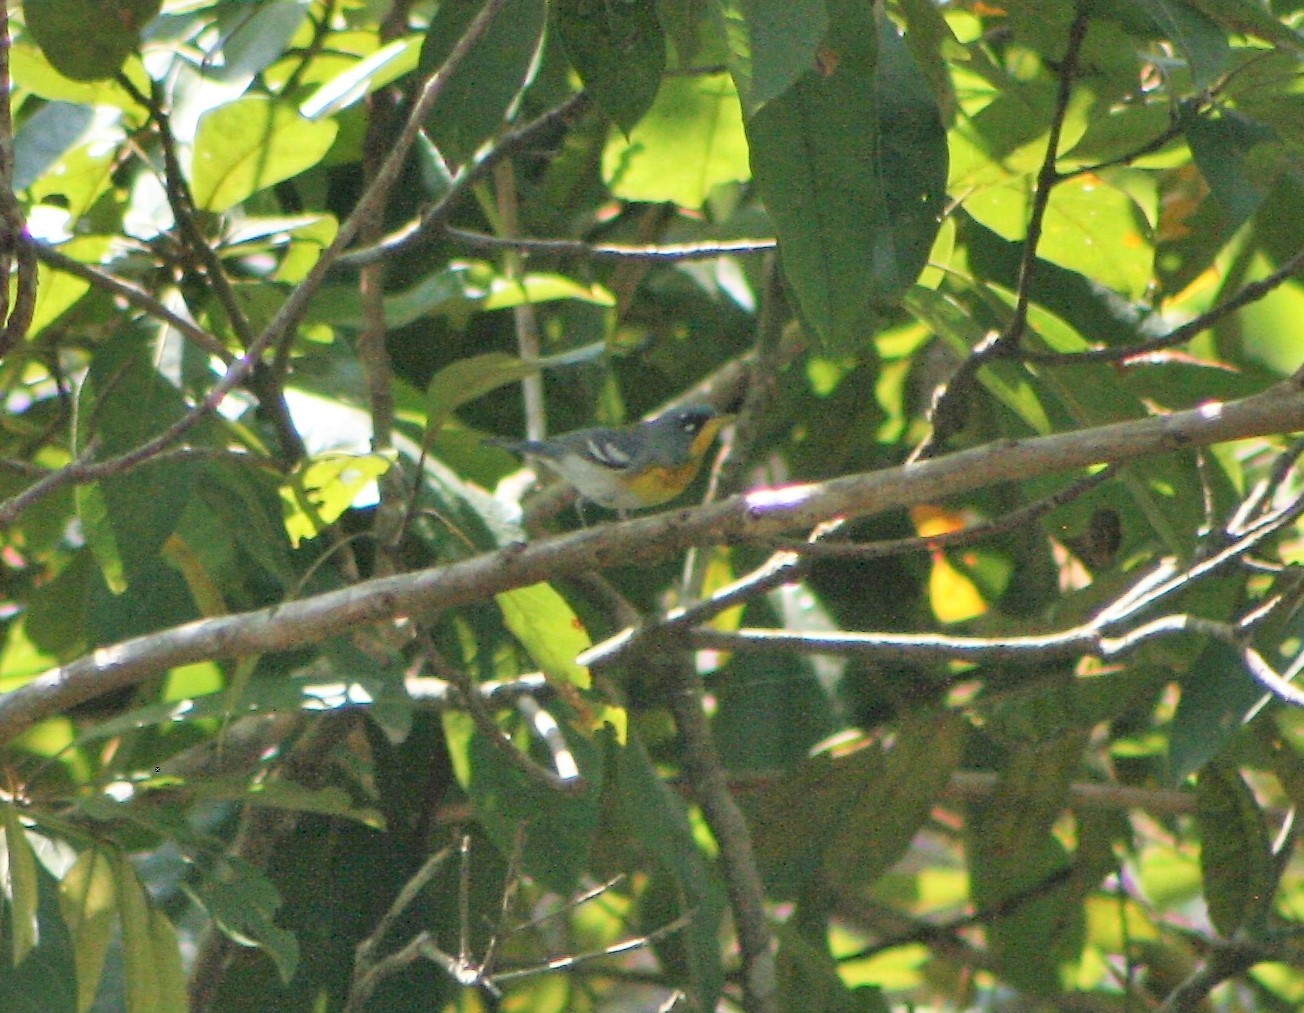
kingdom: Animalia
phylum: Chordata
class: Aves
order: Passeriformes
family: Parulidae
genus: Setophaga
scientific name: Setophaga americana
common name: Northern parula
